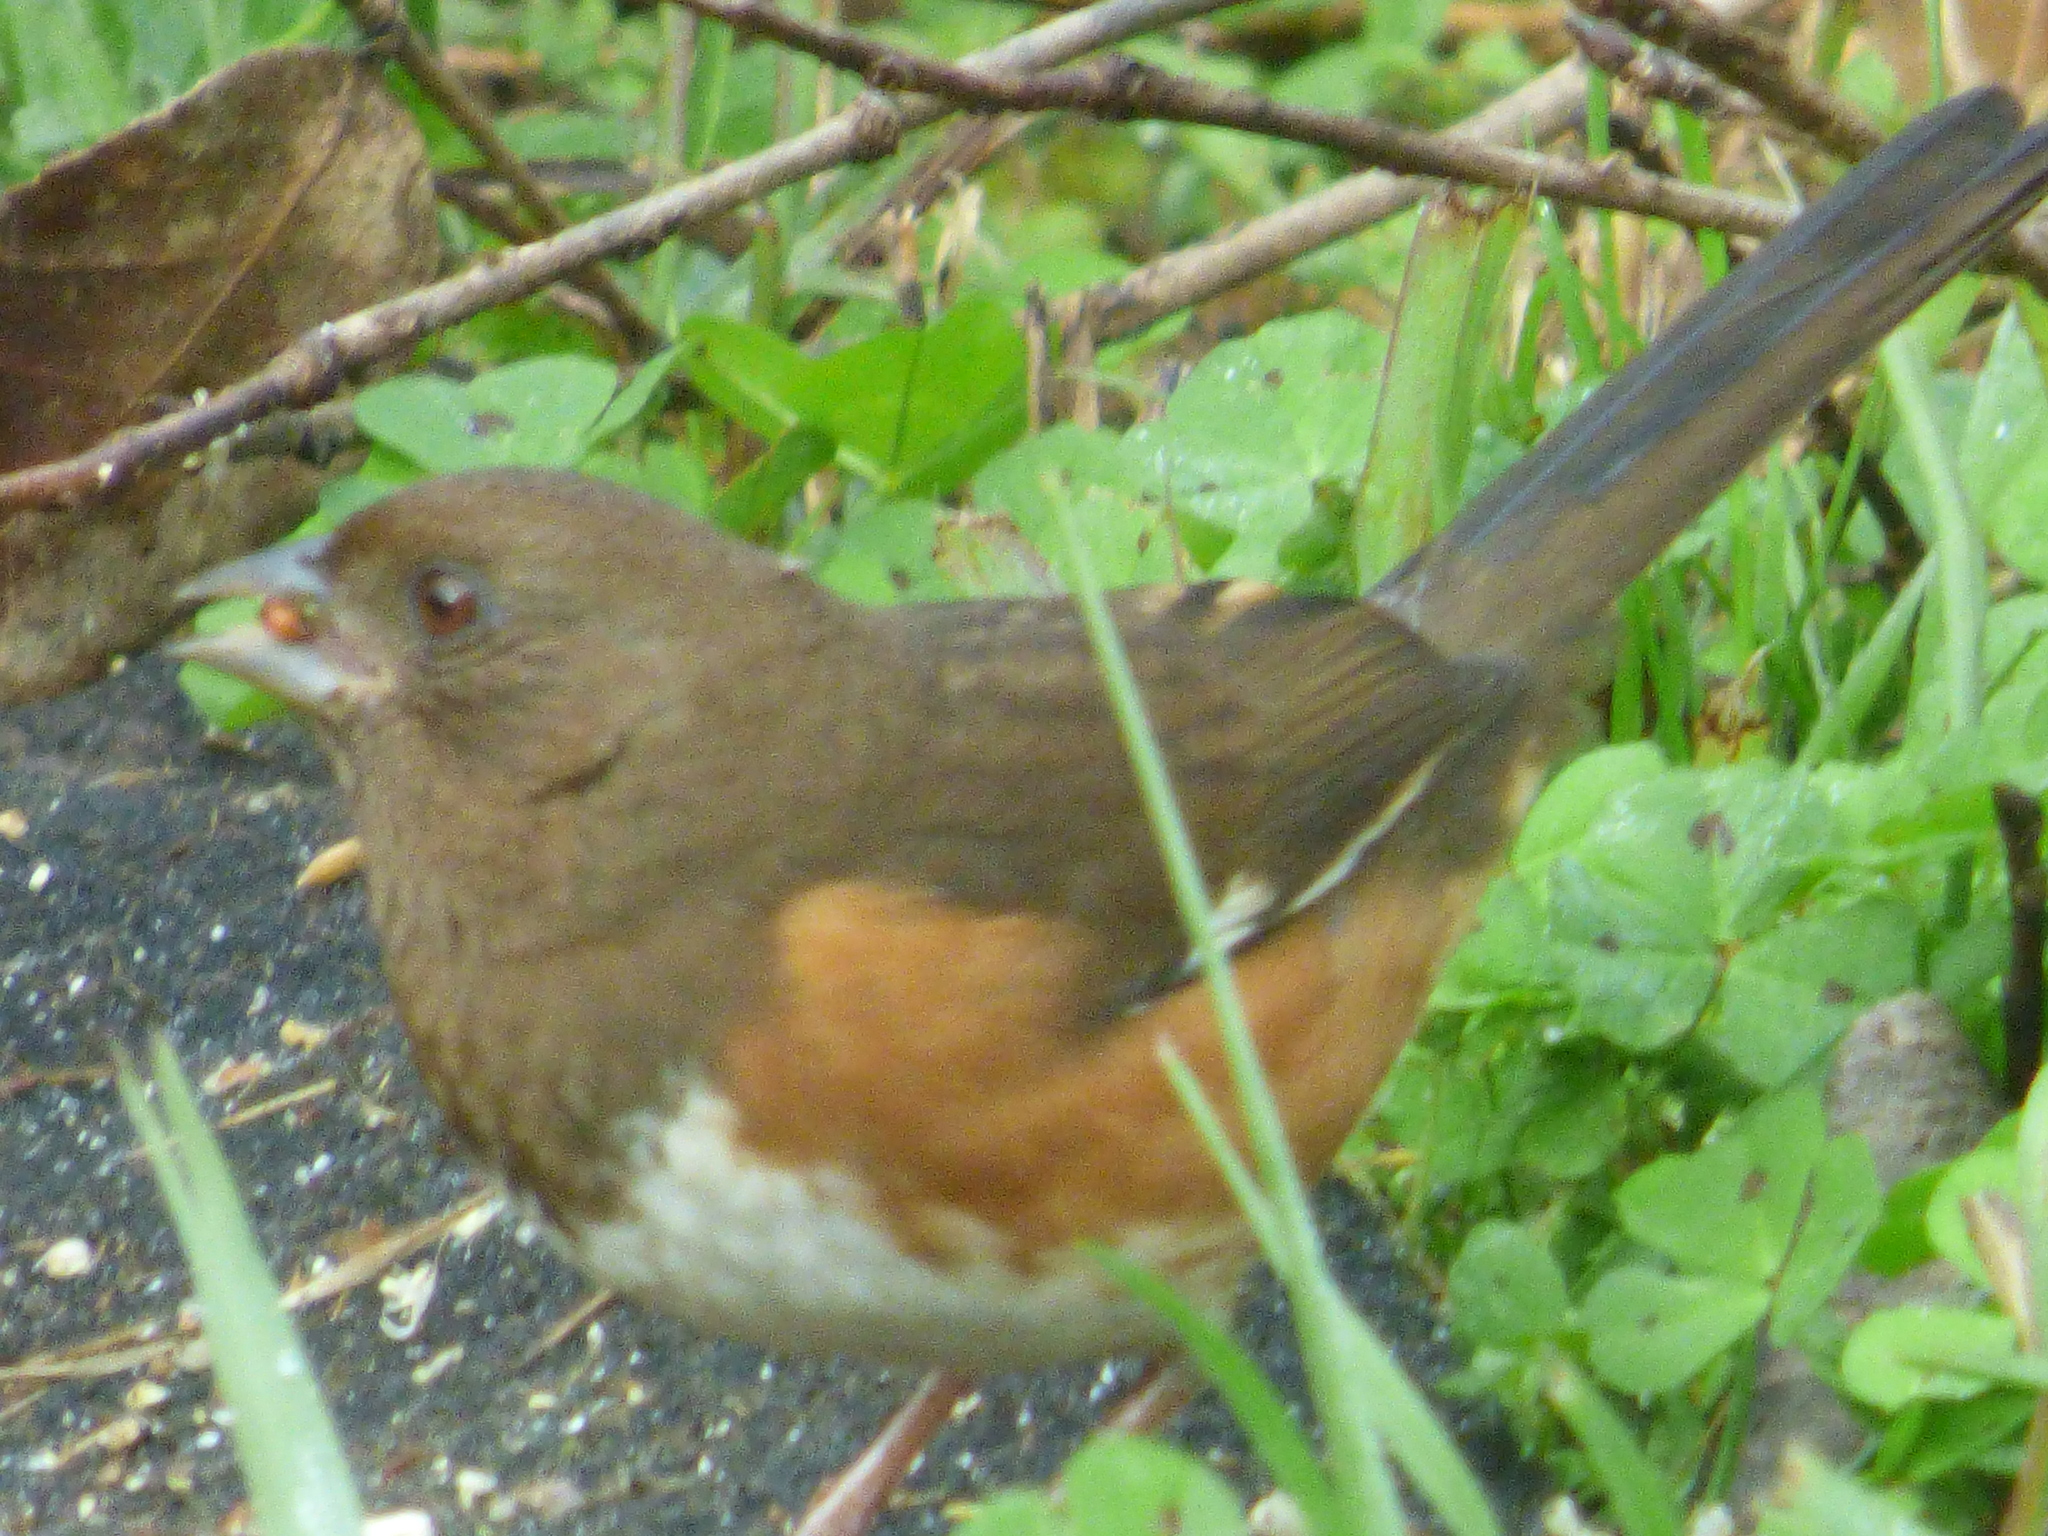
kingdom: Animalia
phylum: Chordata
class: Aves
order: Passeriformes
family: Passerellidae
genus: Pipilo
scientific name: Pipilo erythrophthalmus
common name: Eastern towhee
